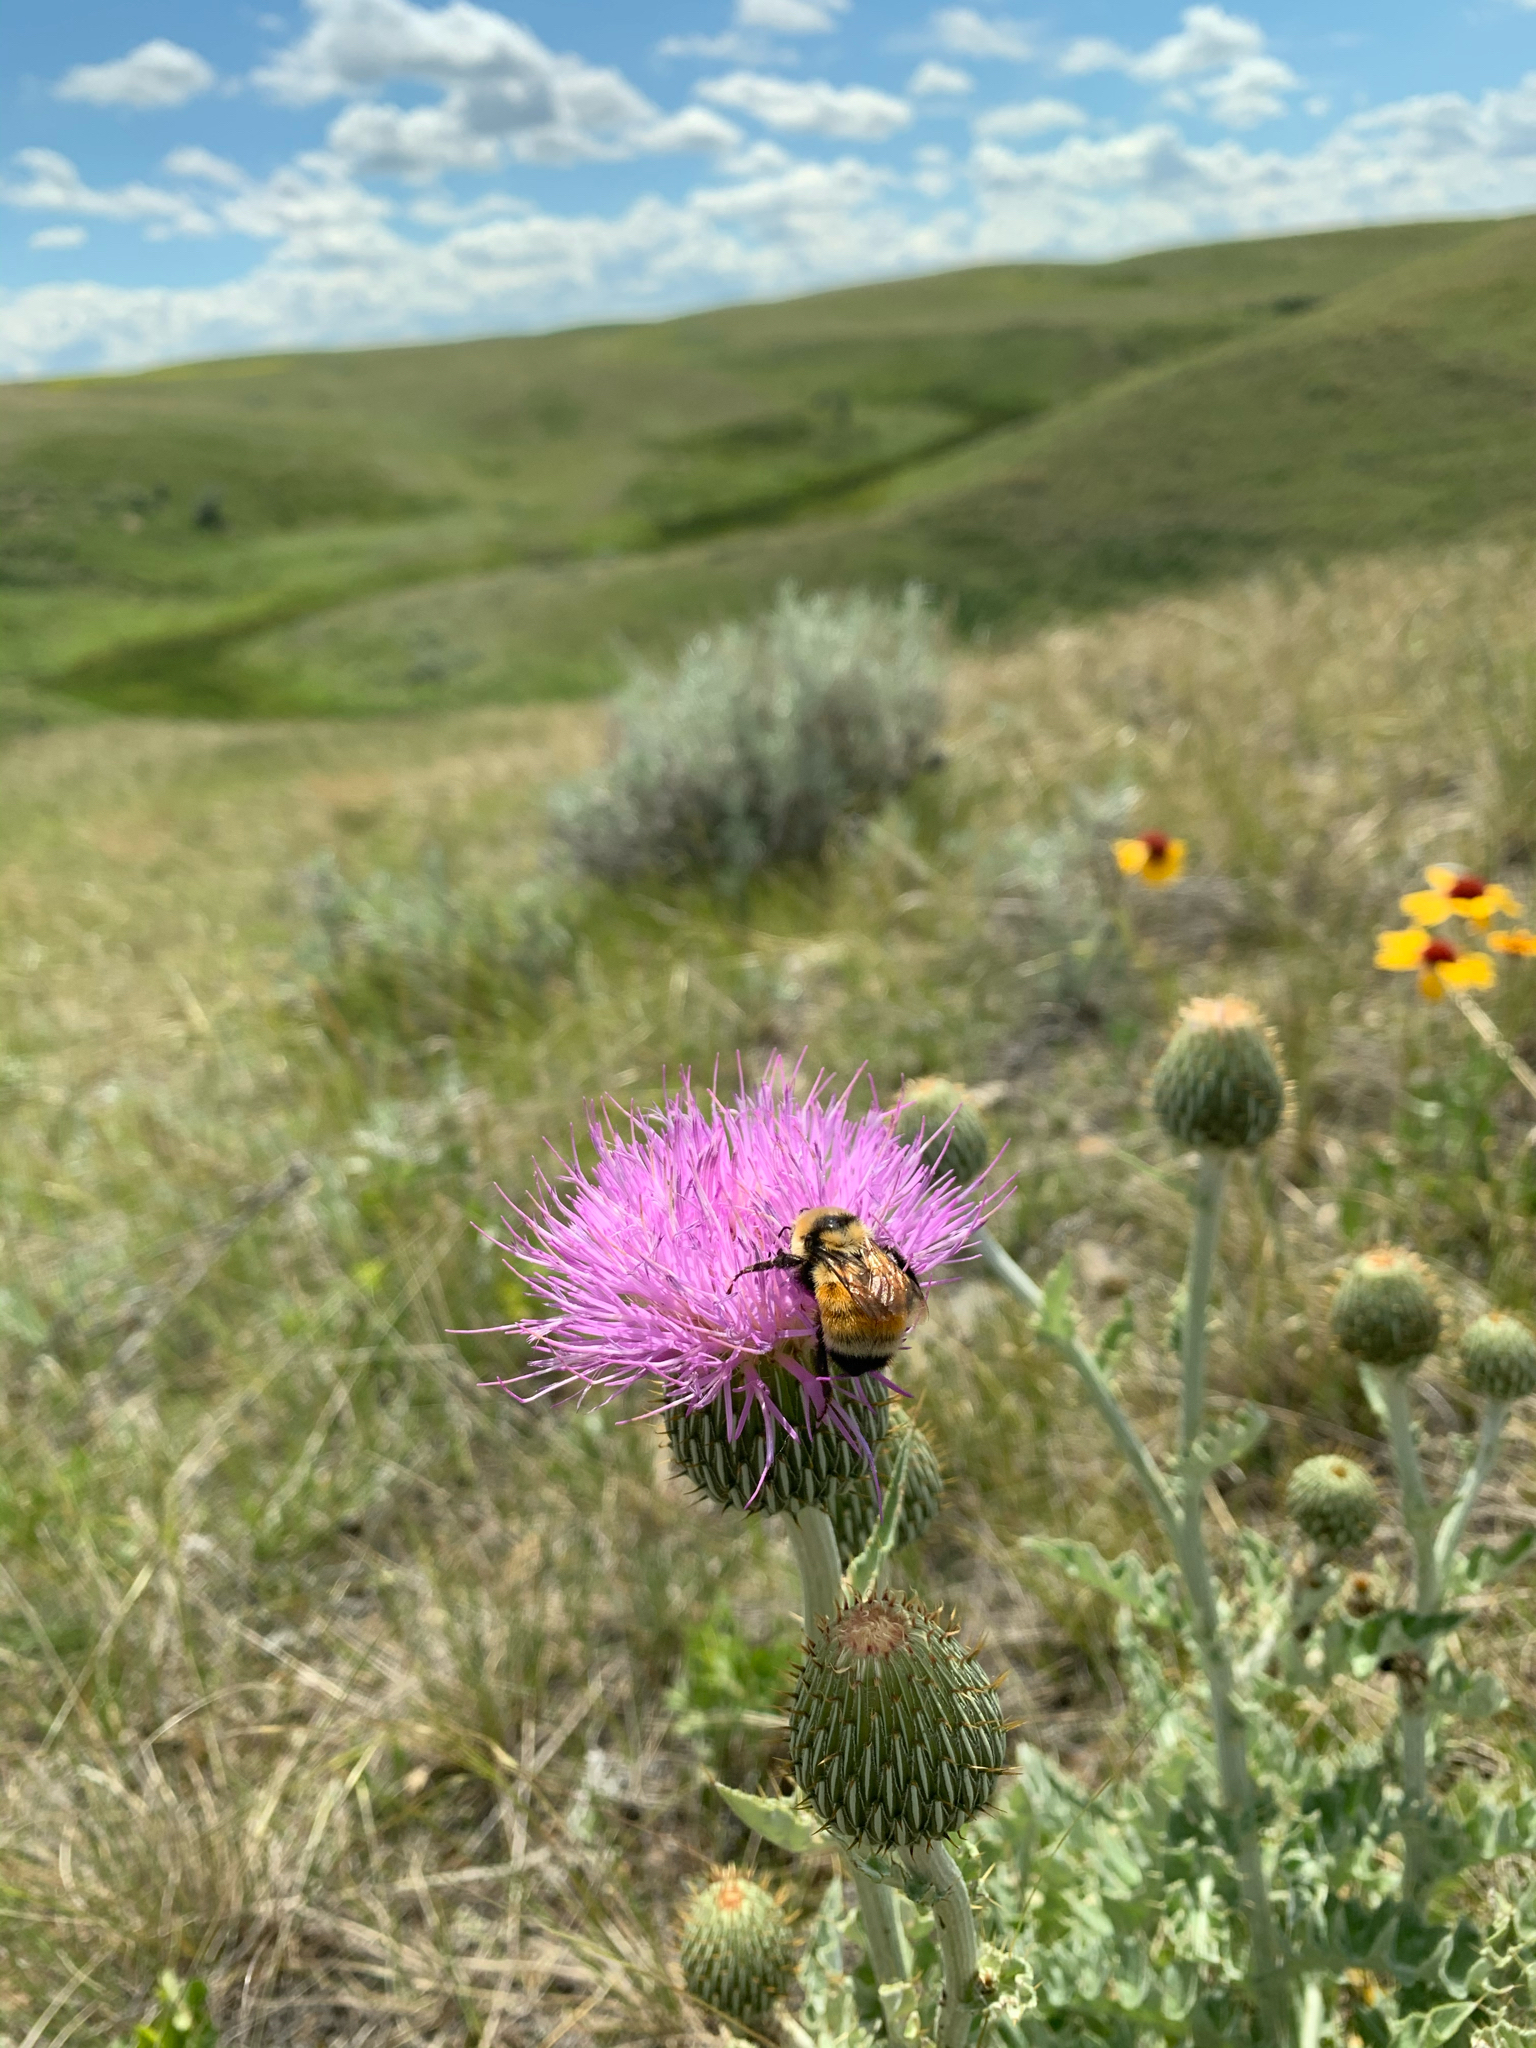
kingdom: Animalia
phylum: Arthropoda
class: Insecta
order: Hymenoptera
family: Apidae
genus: Bombus
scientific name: Bombus huntii
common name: Hunt bumble bee
